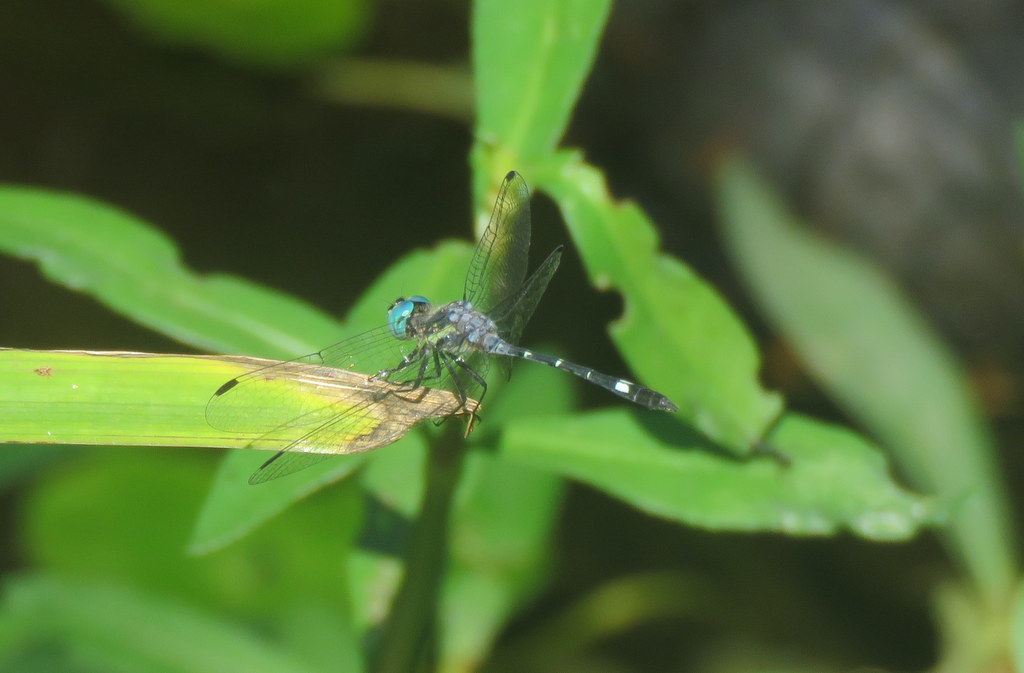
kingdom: Animalia
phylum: Arthropoda
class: Insecta
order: Odonata
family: Libellulidae
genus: Micrathyria
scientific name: Micrathyria hypodidyma
